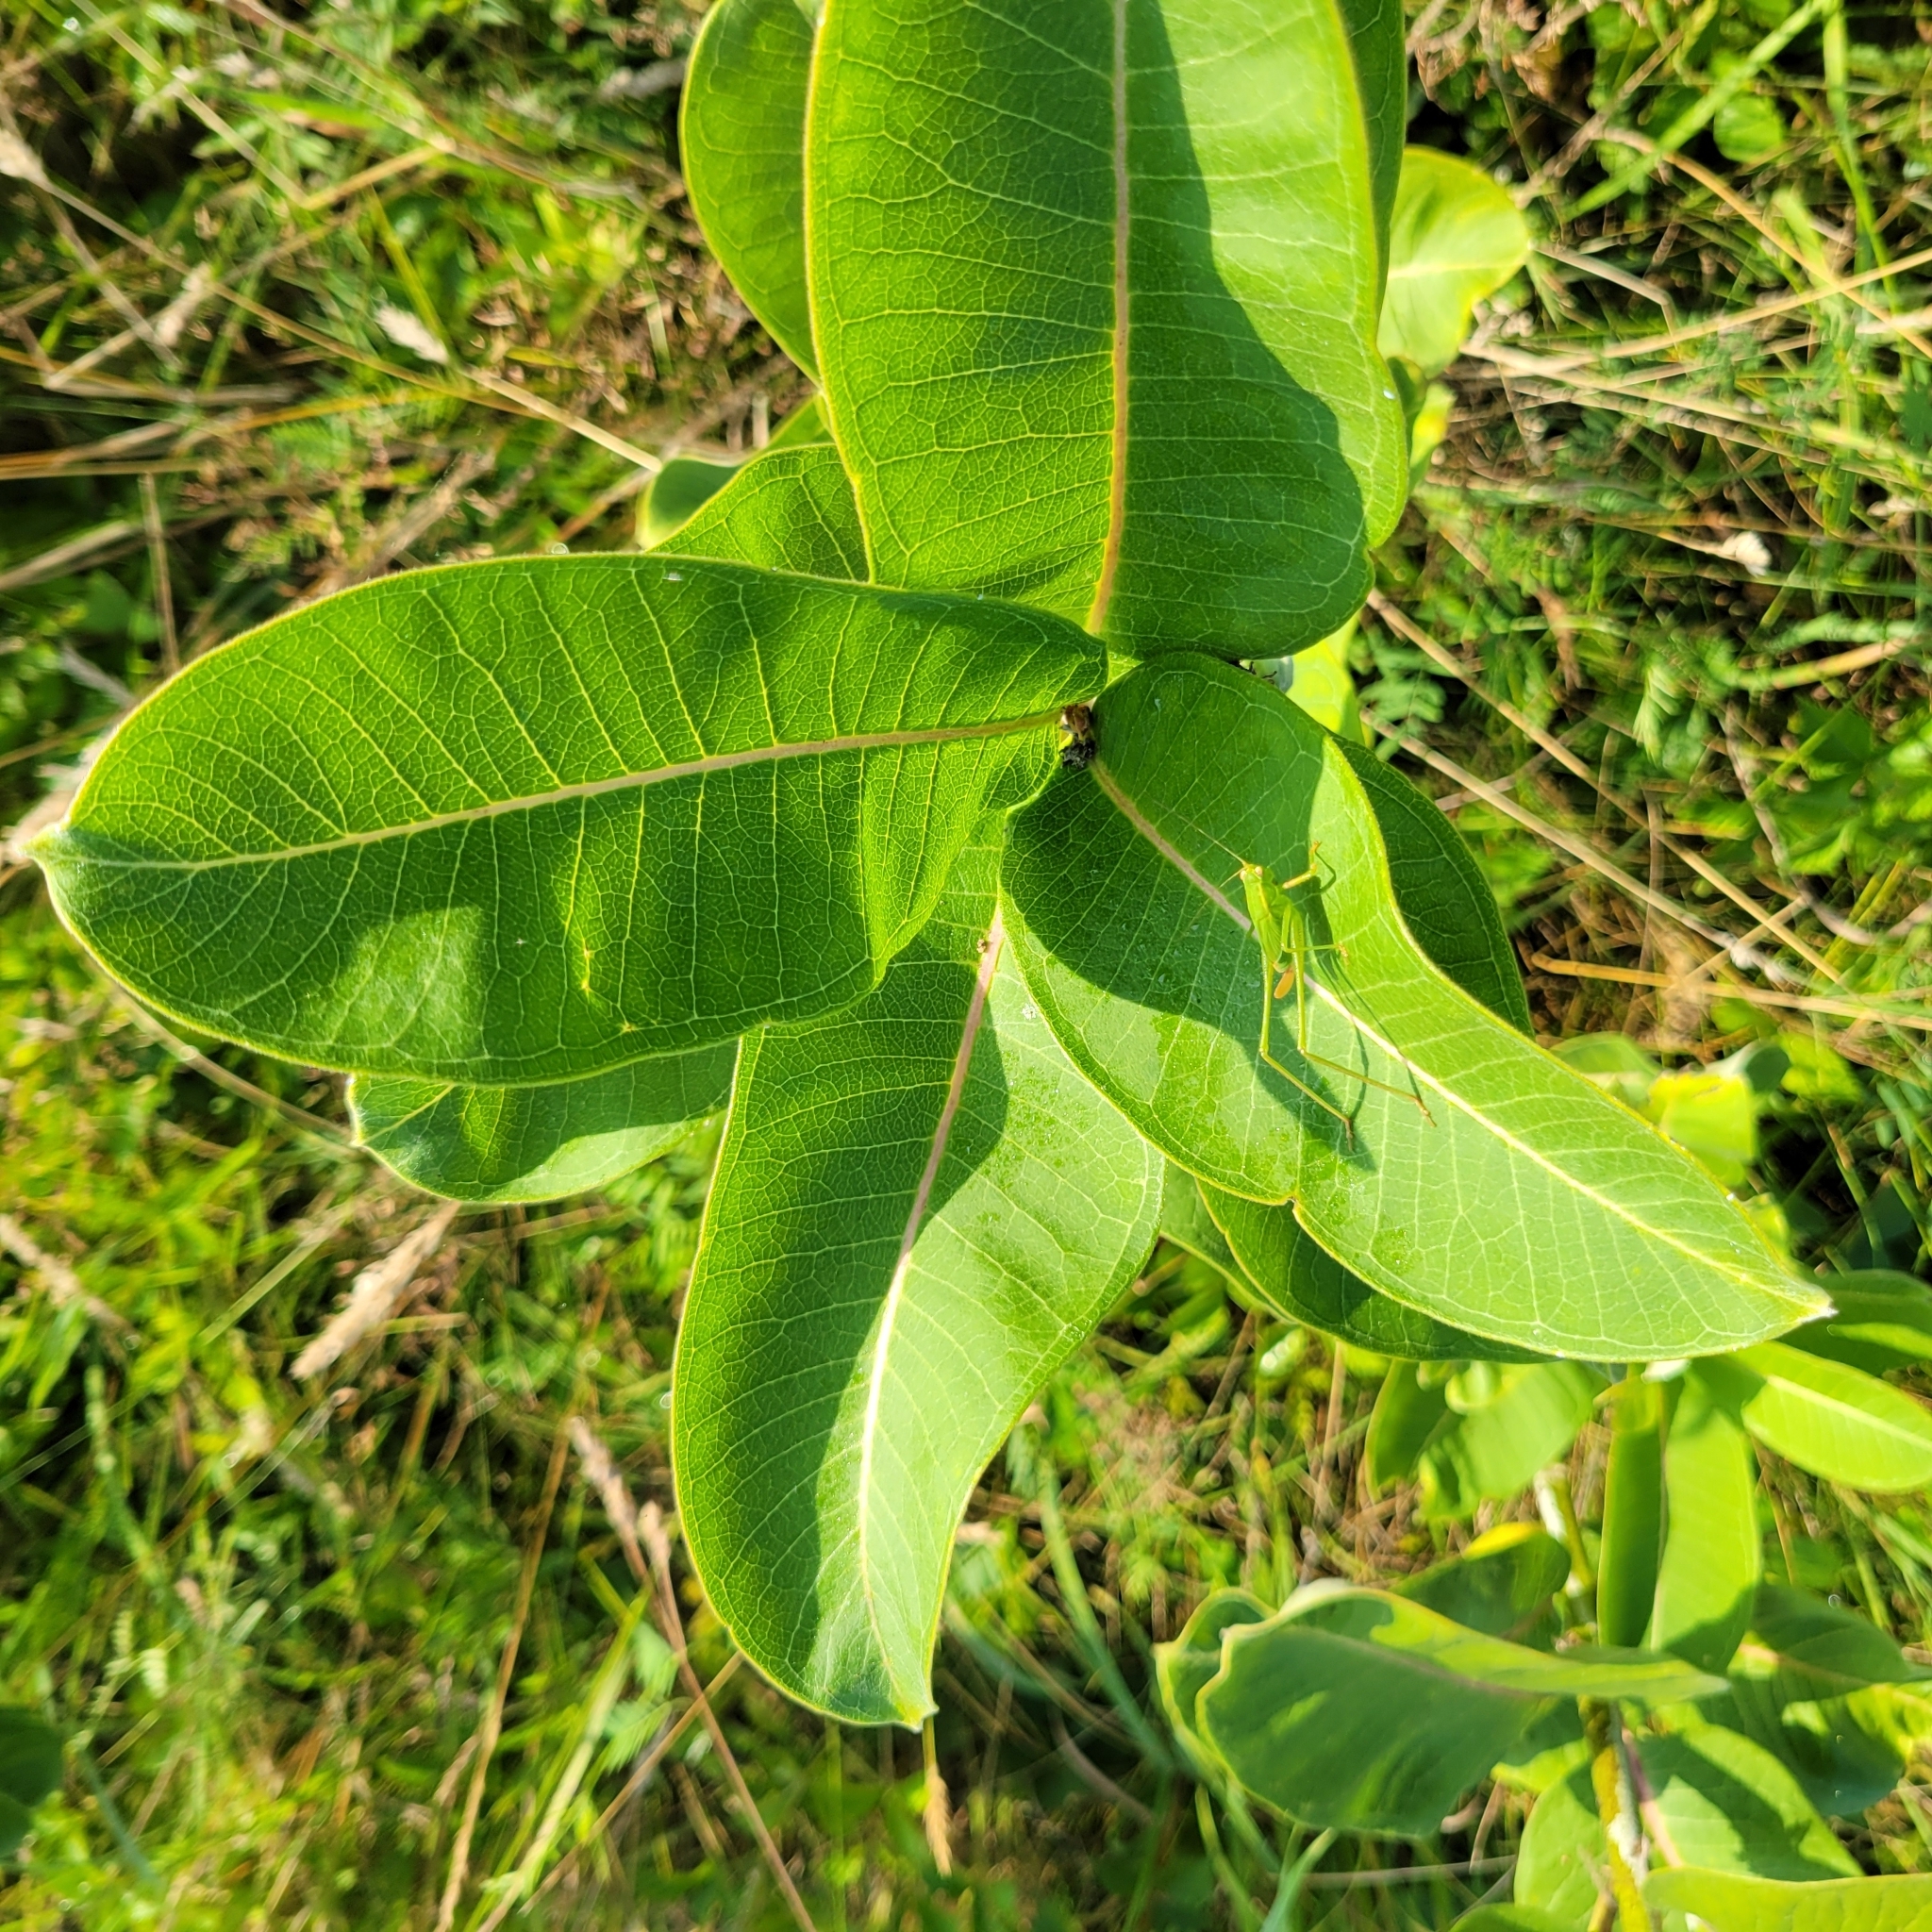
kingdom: Plantae
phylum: Tracheophyta
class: Magnoliopsida
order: Gentianales
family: Apocynaceae
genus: Asclepias
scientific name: Asclepias syriaca
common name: Common milkweed
